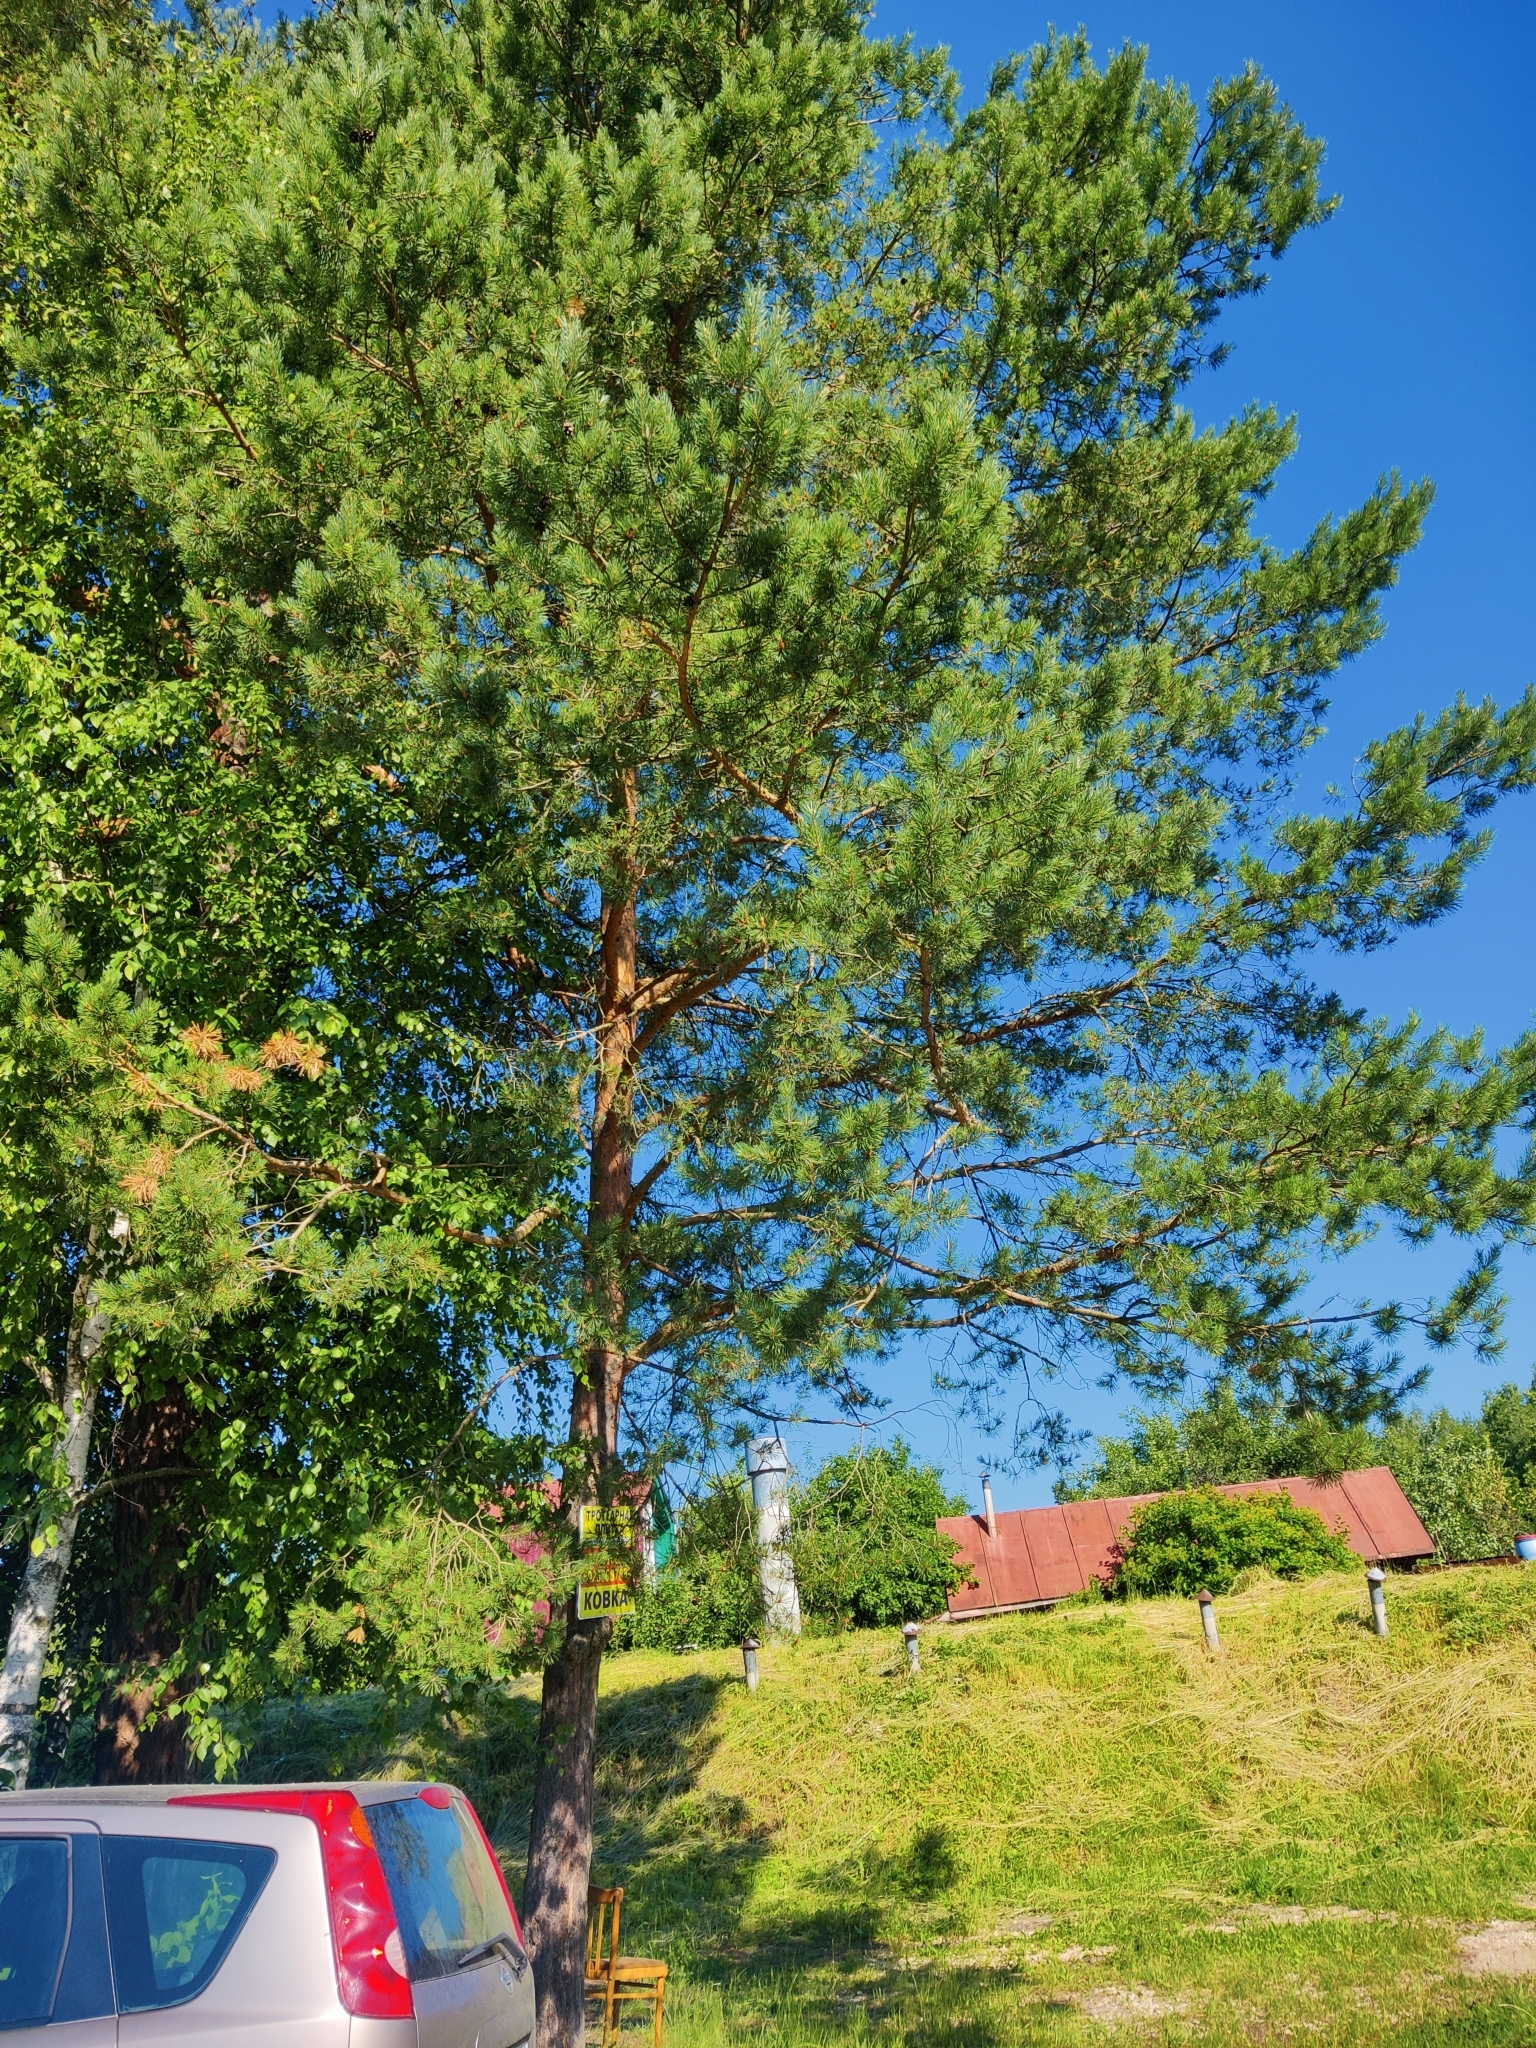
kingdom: Plantae
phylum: Tracheophyta
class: Pinopsida
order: Pinales
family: Pinaceae
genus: Pinus
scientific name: Pinus sylvestris
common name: Scots pine
